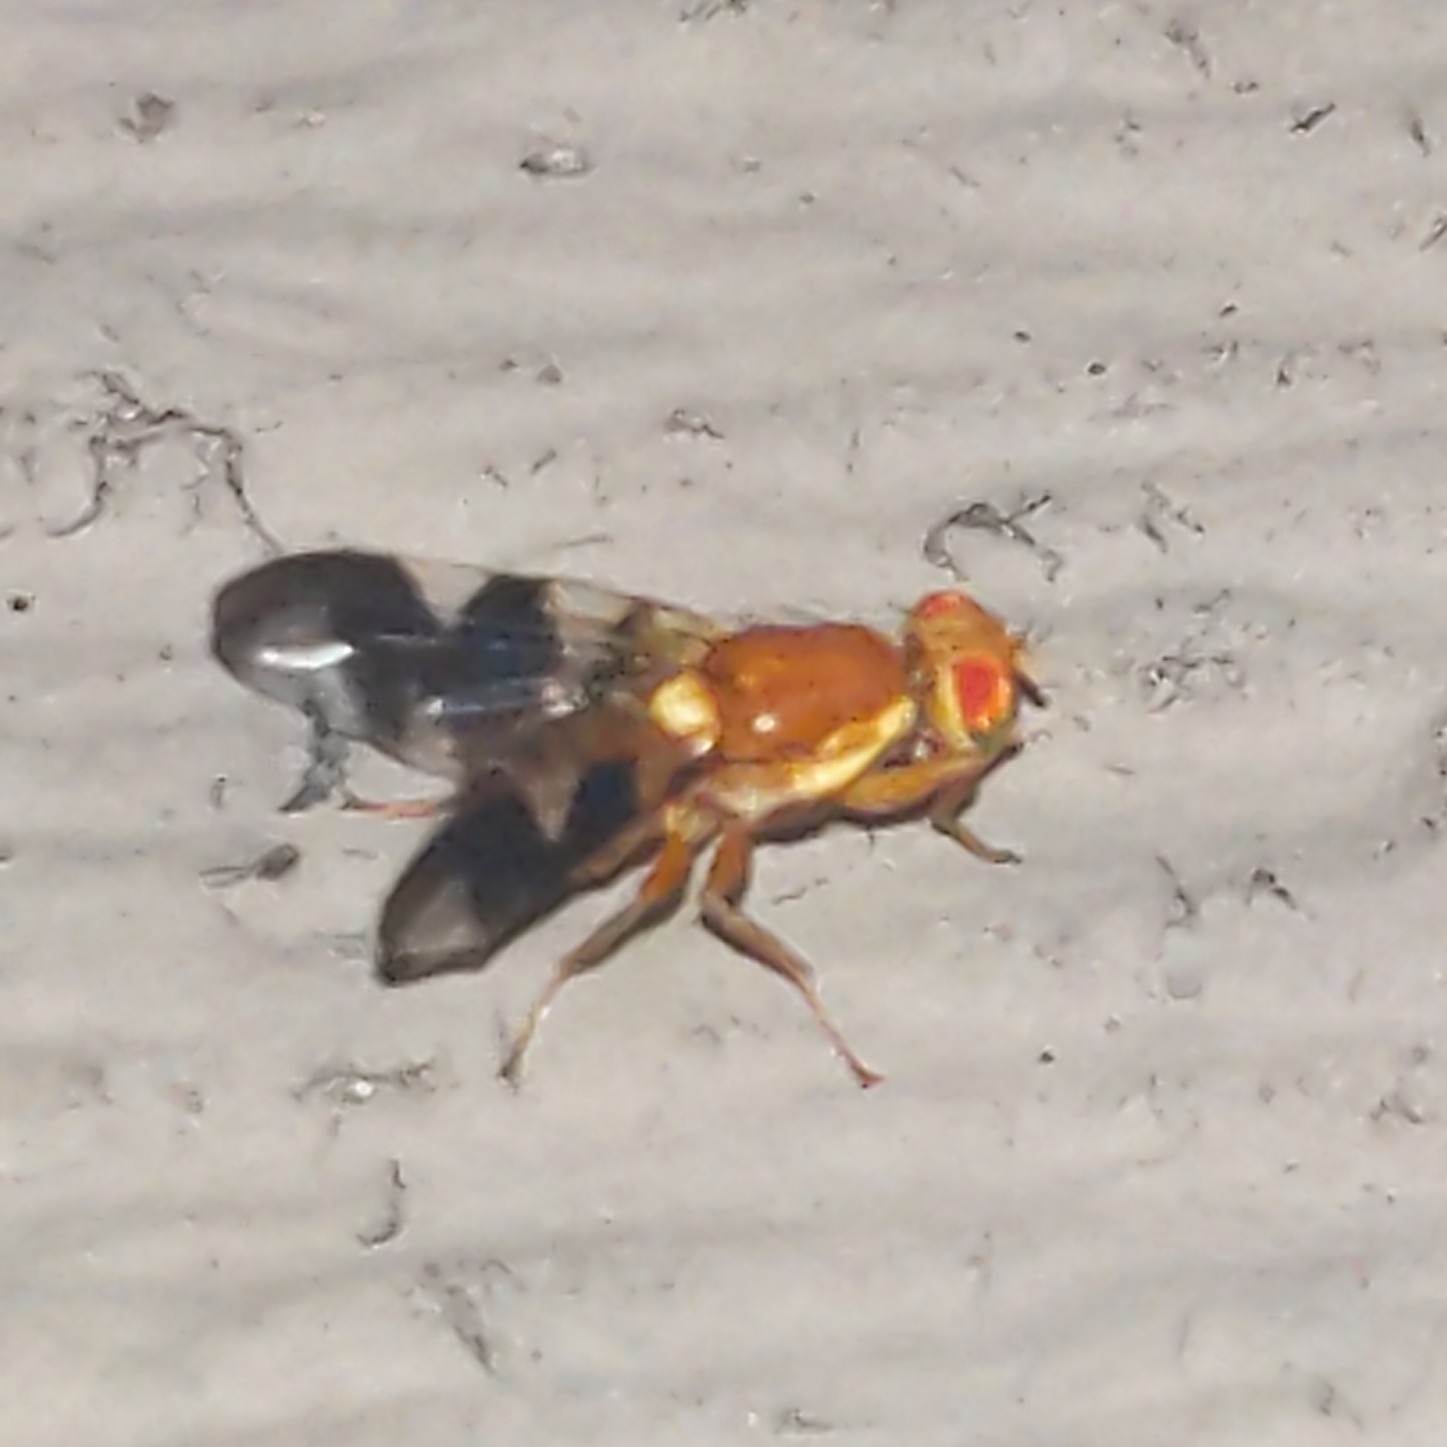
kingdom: Animalia
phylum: Arthropoda
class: Insecta
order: Diptera
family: Tephritidae
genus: Rhagoletis
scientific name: Rhagoletis suavis
